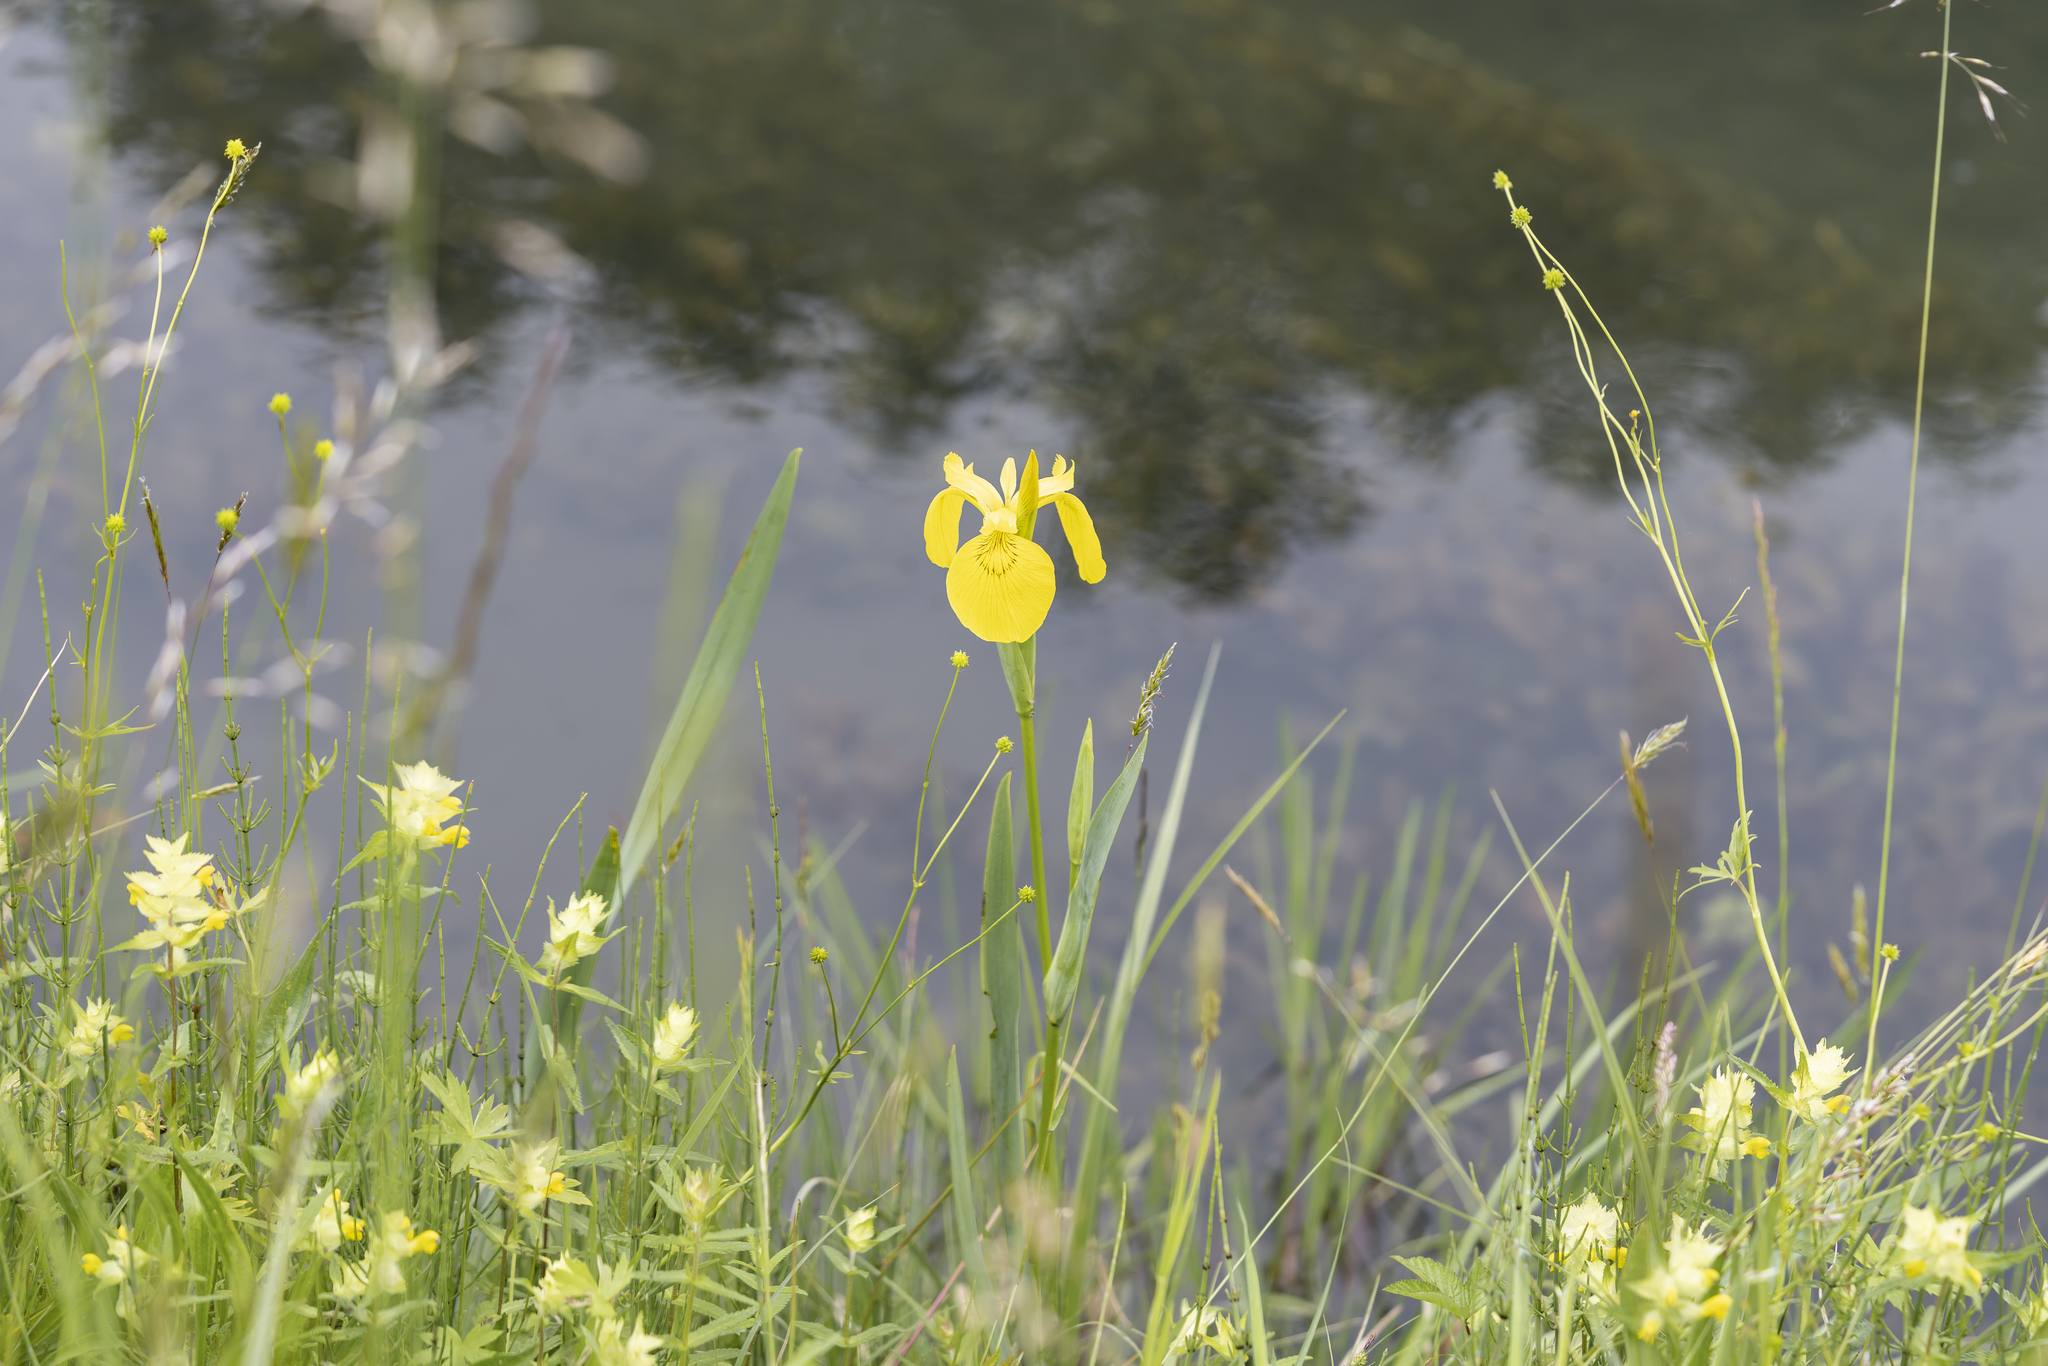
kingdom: Plantae
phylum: Tracheophyta
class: Liliopsida
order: Asparagales
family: Iridaceae
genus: Iris
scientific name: Iris pseudacorus
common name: Yellow flag
